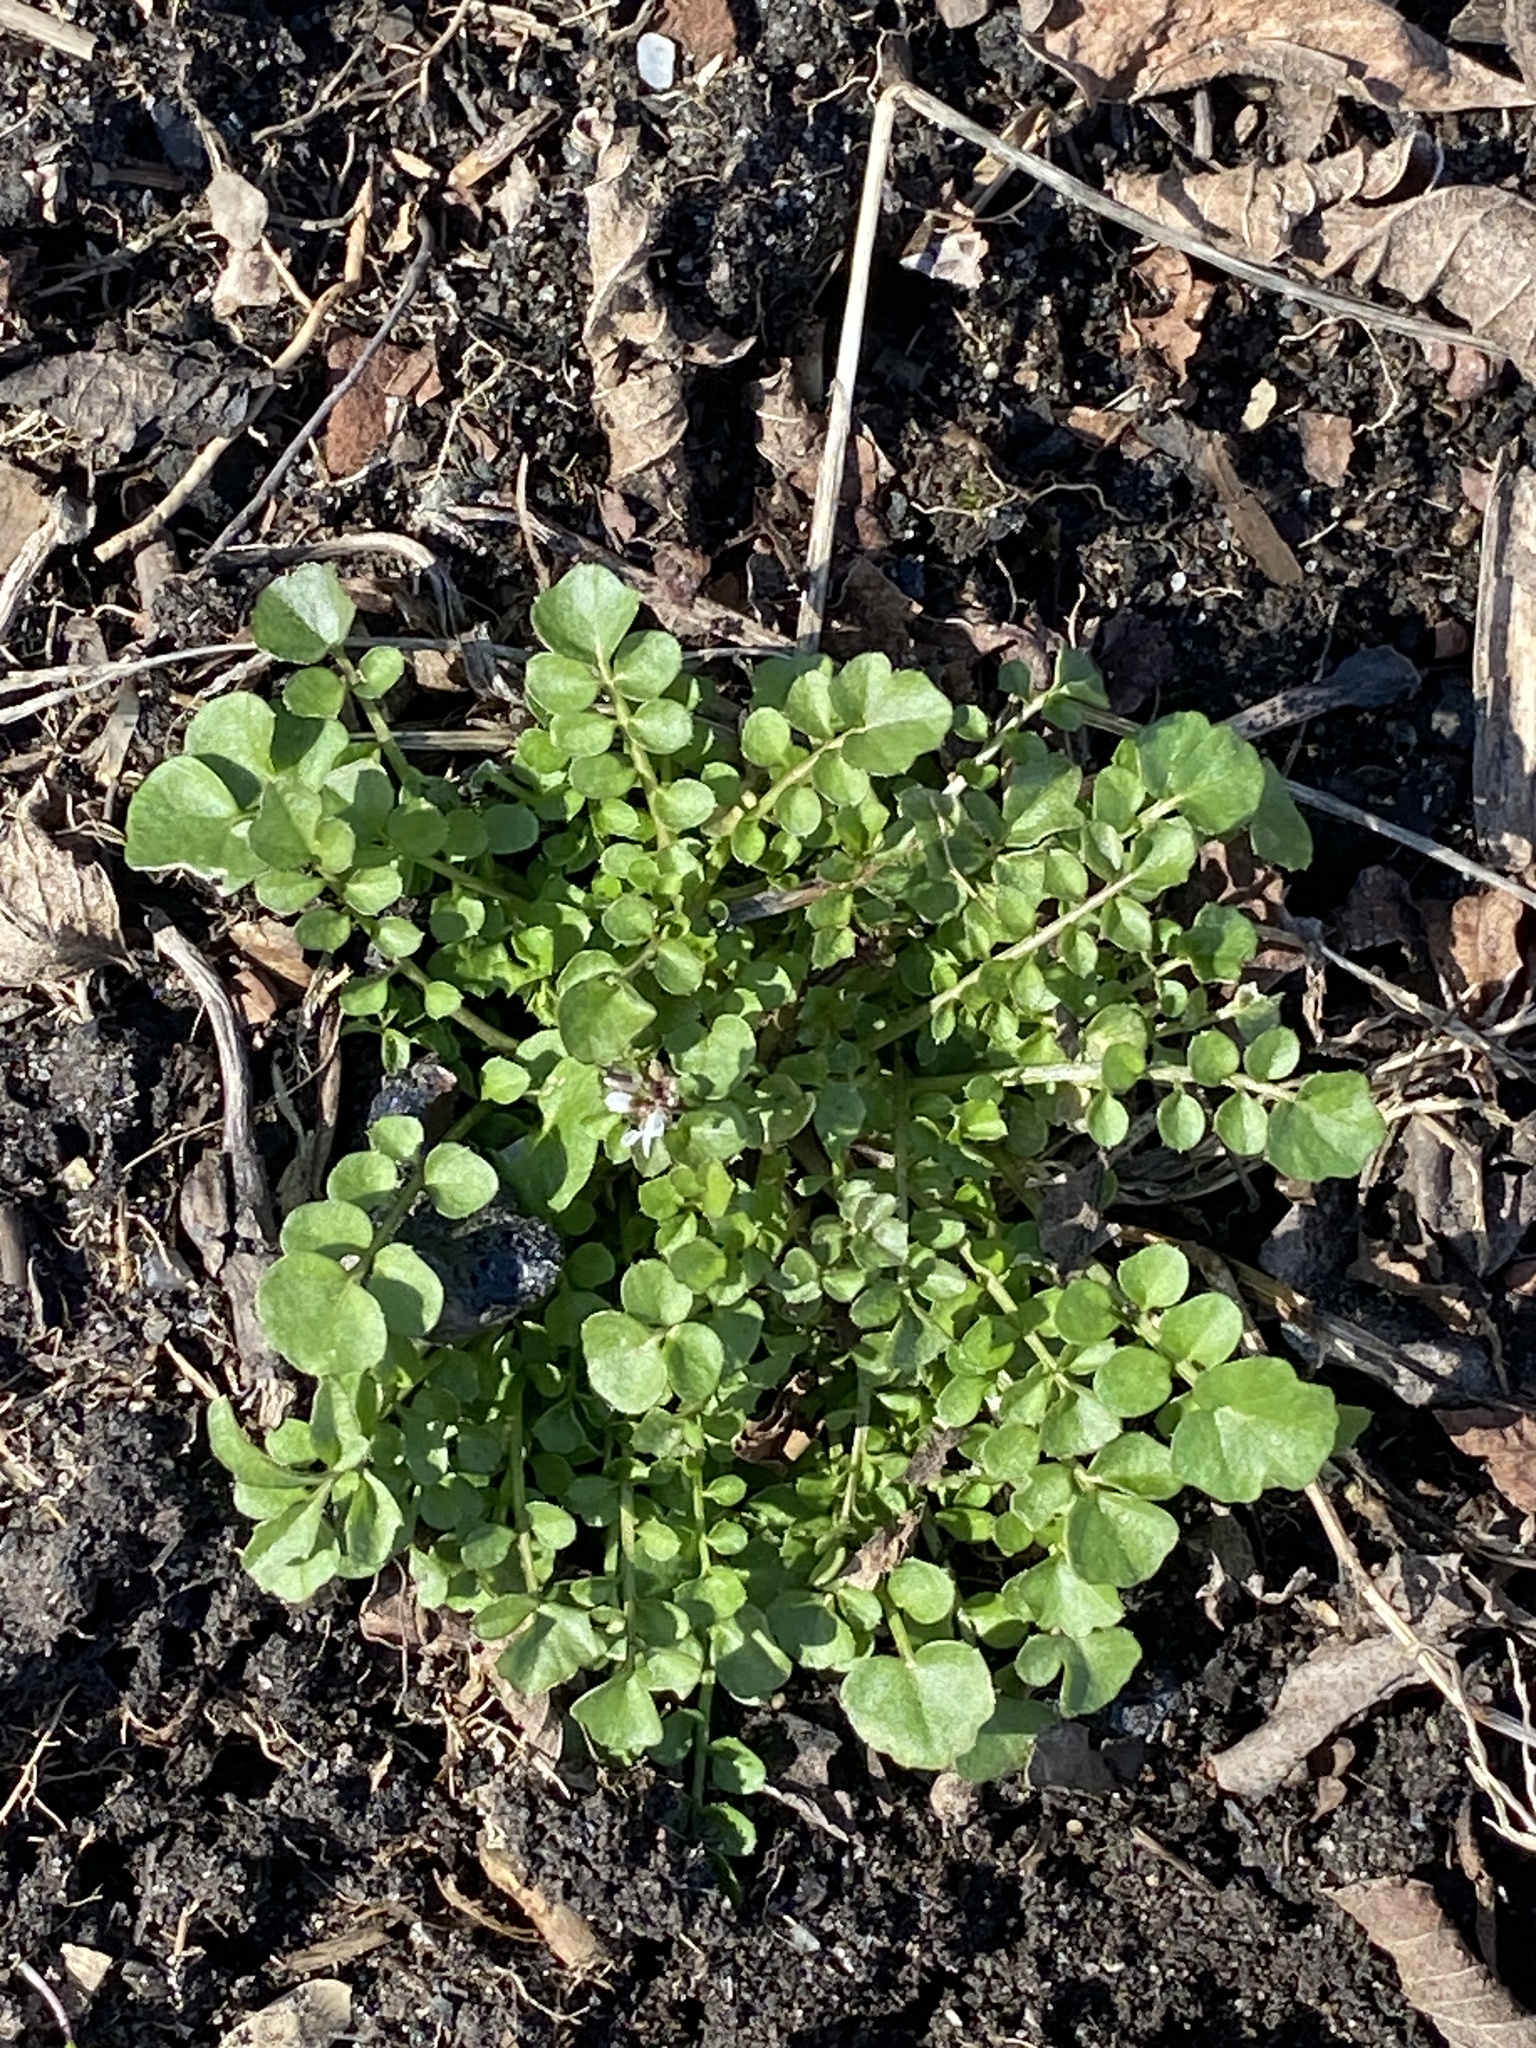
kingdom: Plantae
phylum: Tracheophyta
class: Magnoliopsida
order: Brassicales
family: Brassicaceae
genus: Cardamine
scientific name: Cardamine hirsuta
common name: Hairy bittercress
